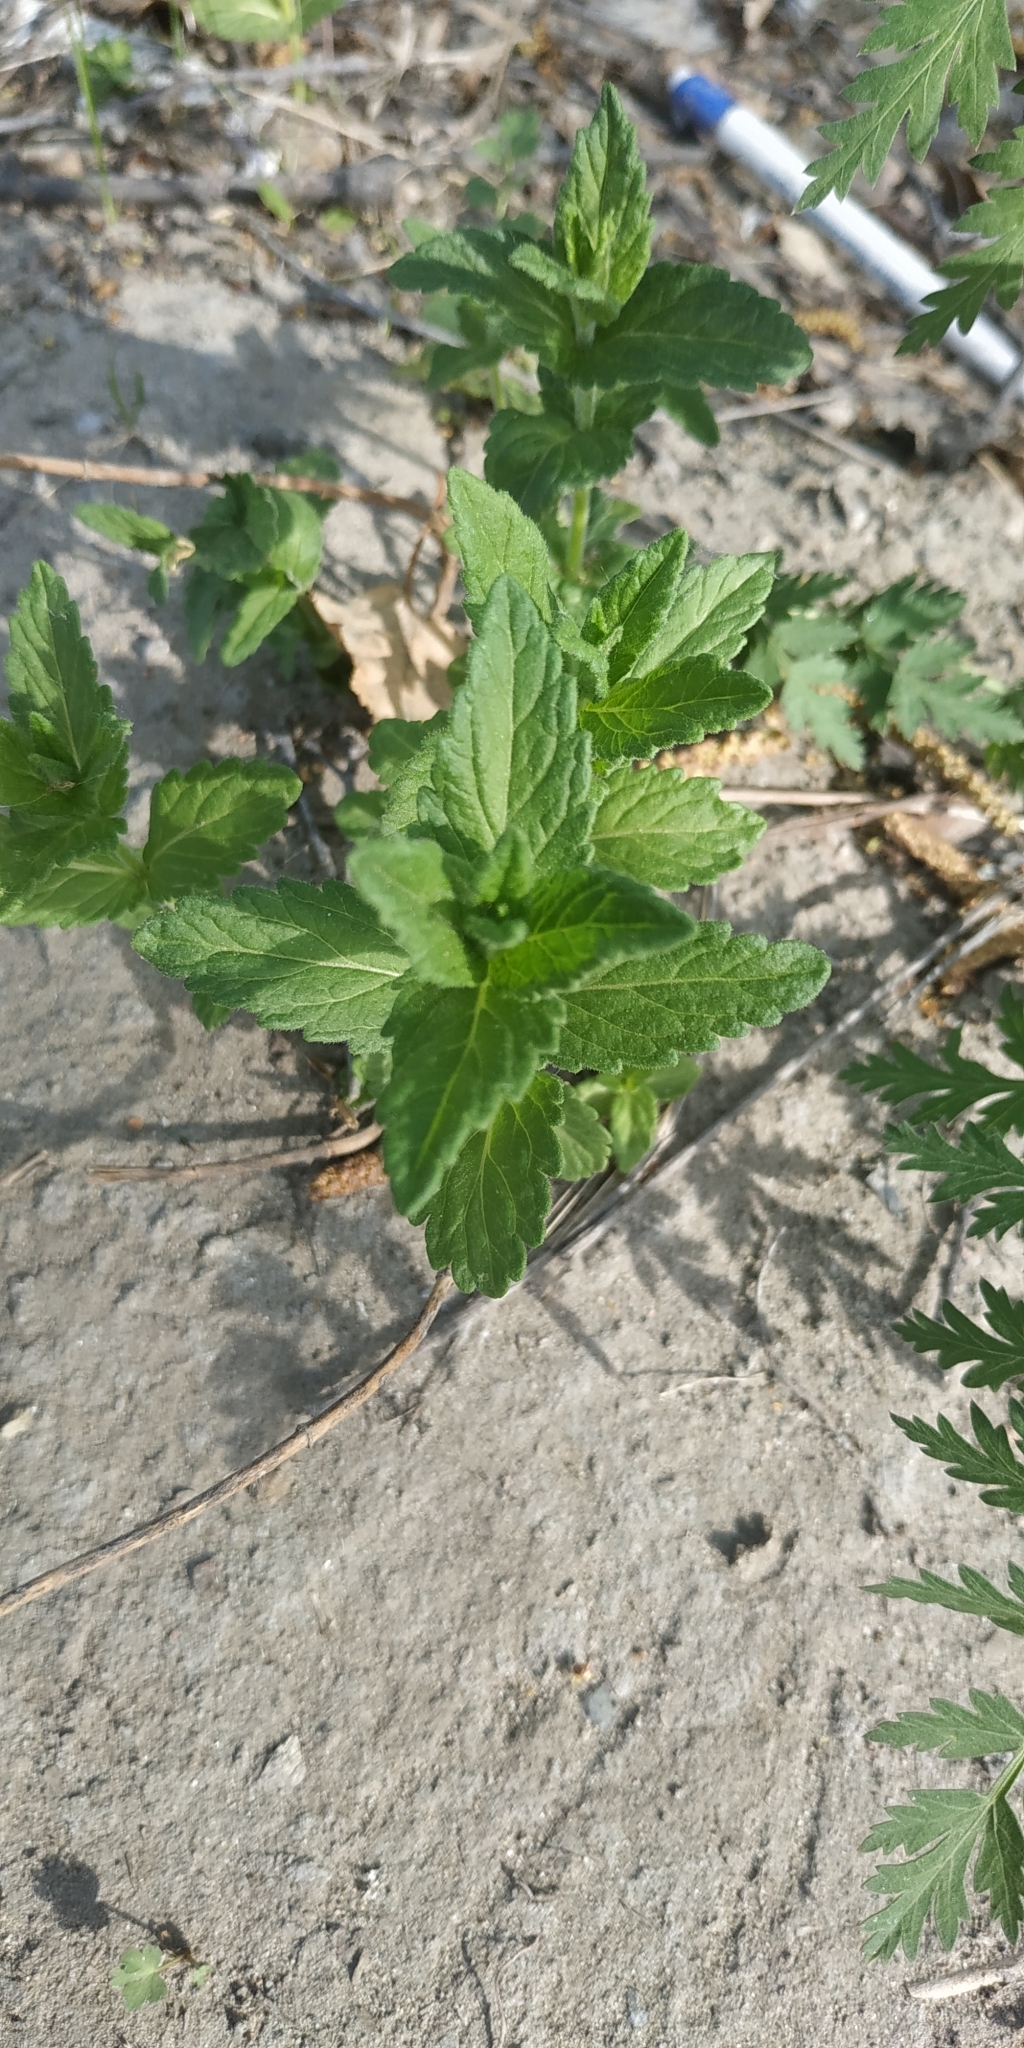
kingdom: Plantae
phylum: Tracheophyta
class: Magnoliopsida
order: Lamiales
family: Plantaginaceae
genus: Veronica
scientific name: Veronica teucrium
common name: Large speedwell
